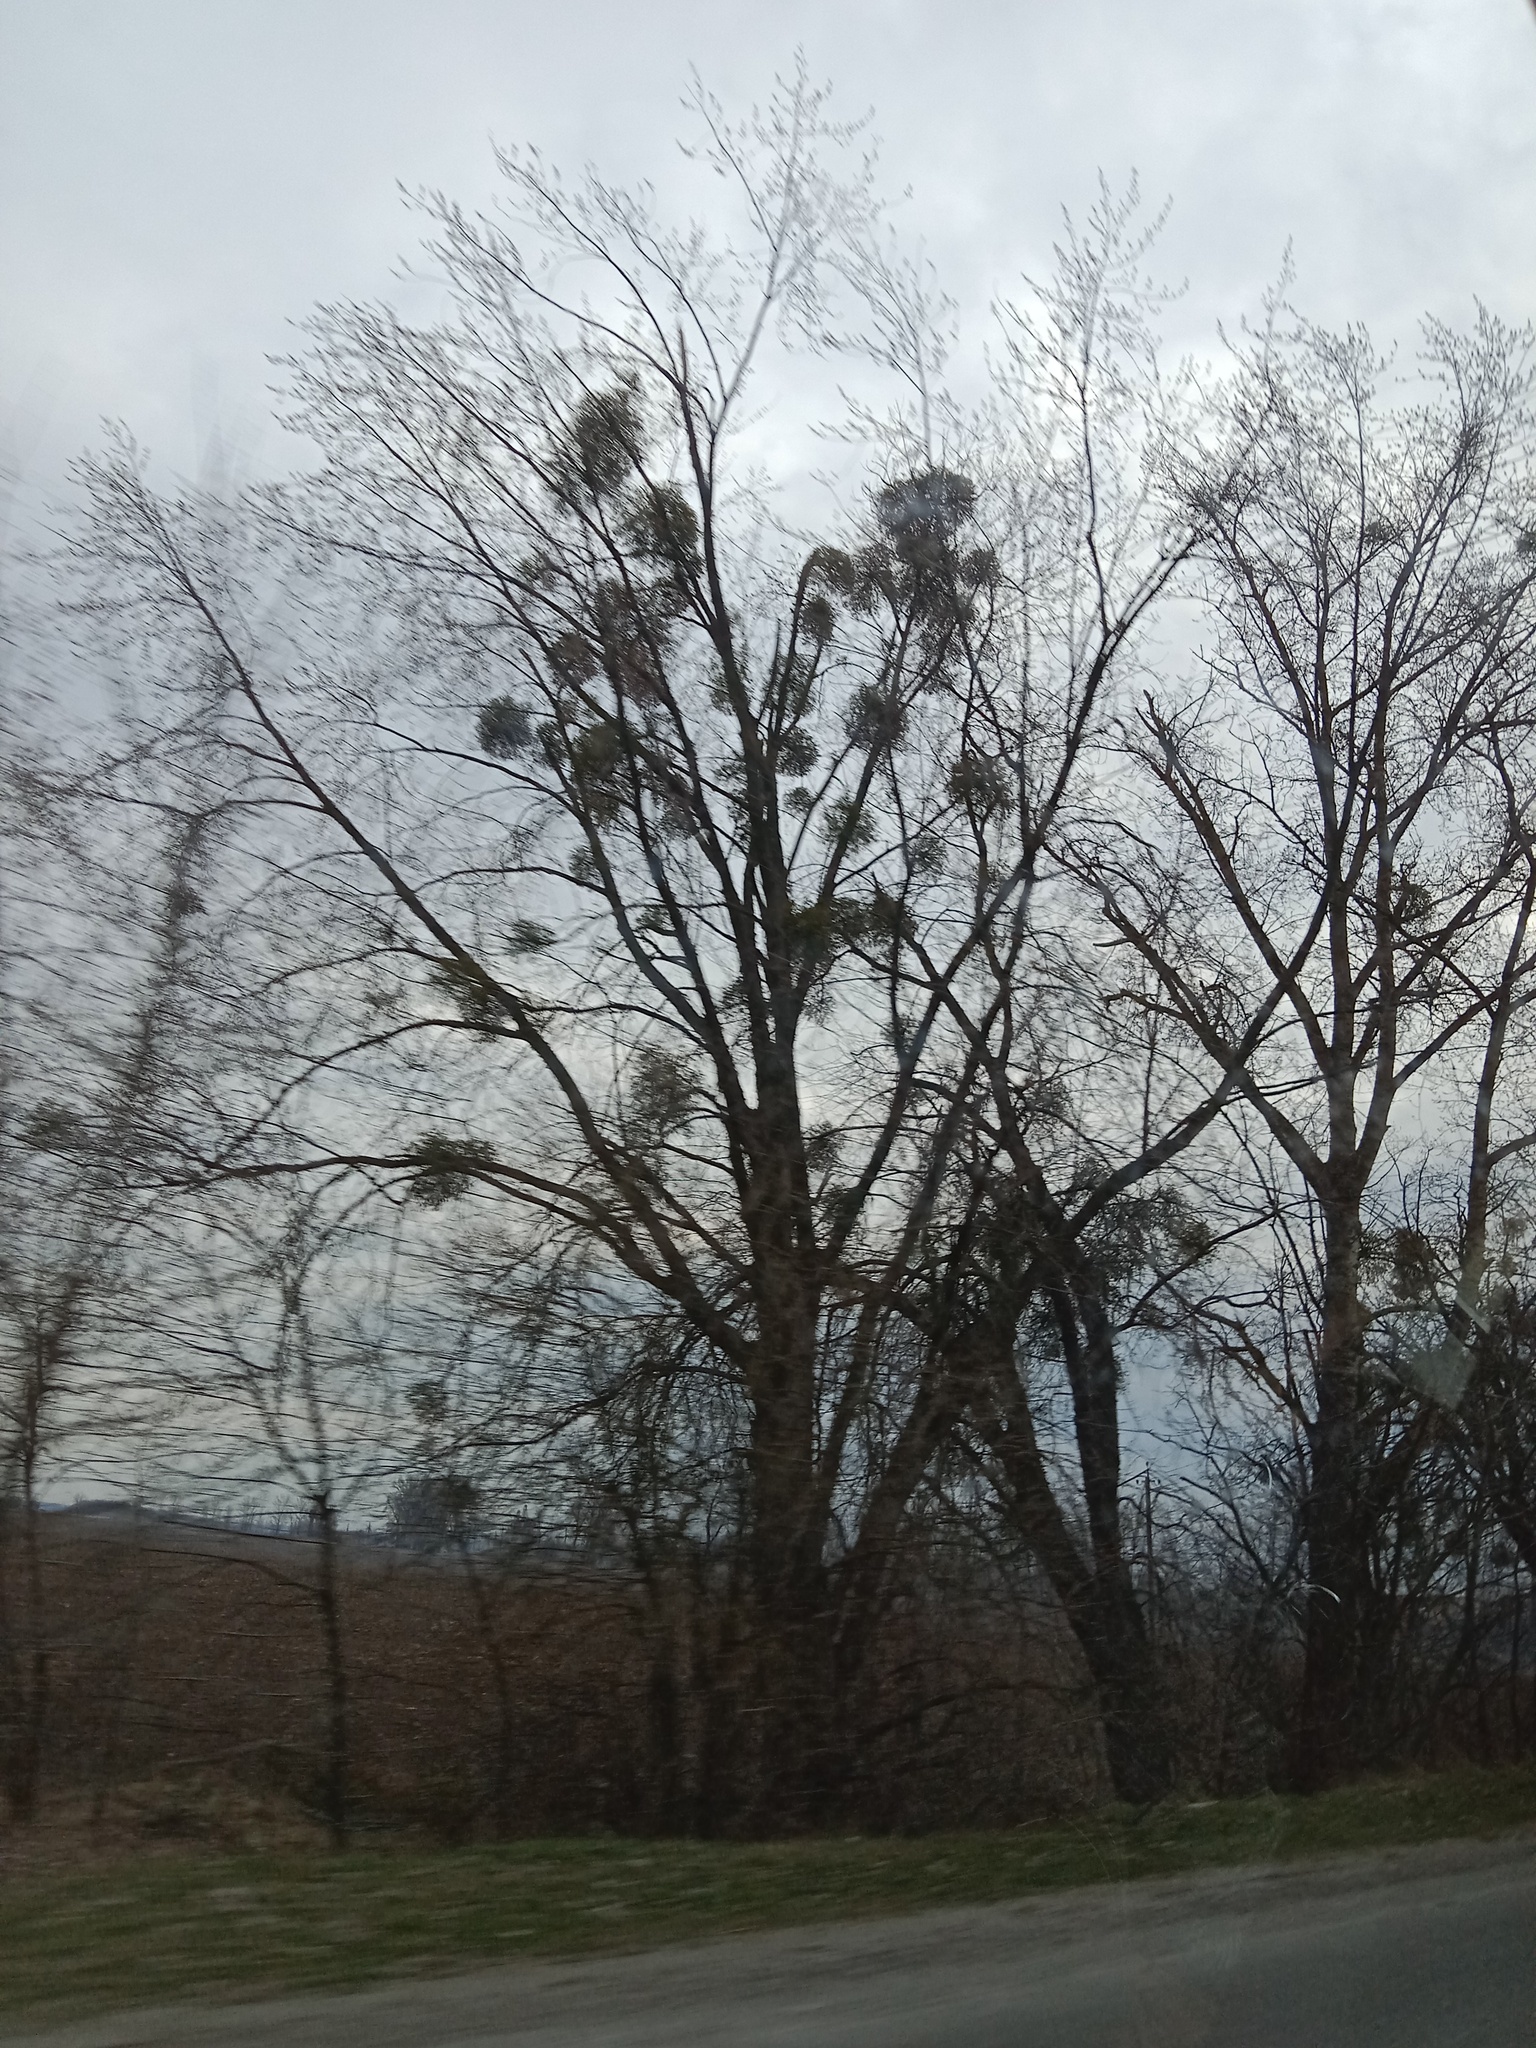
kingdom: Plantae
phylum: Tracheophyta
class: Magnoliopsida
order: Santalales
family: Viscaceae
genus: Viscum
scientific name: Viscum album
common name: Mistletoe
